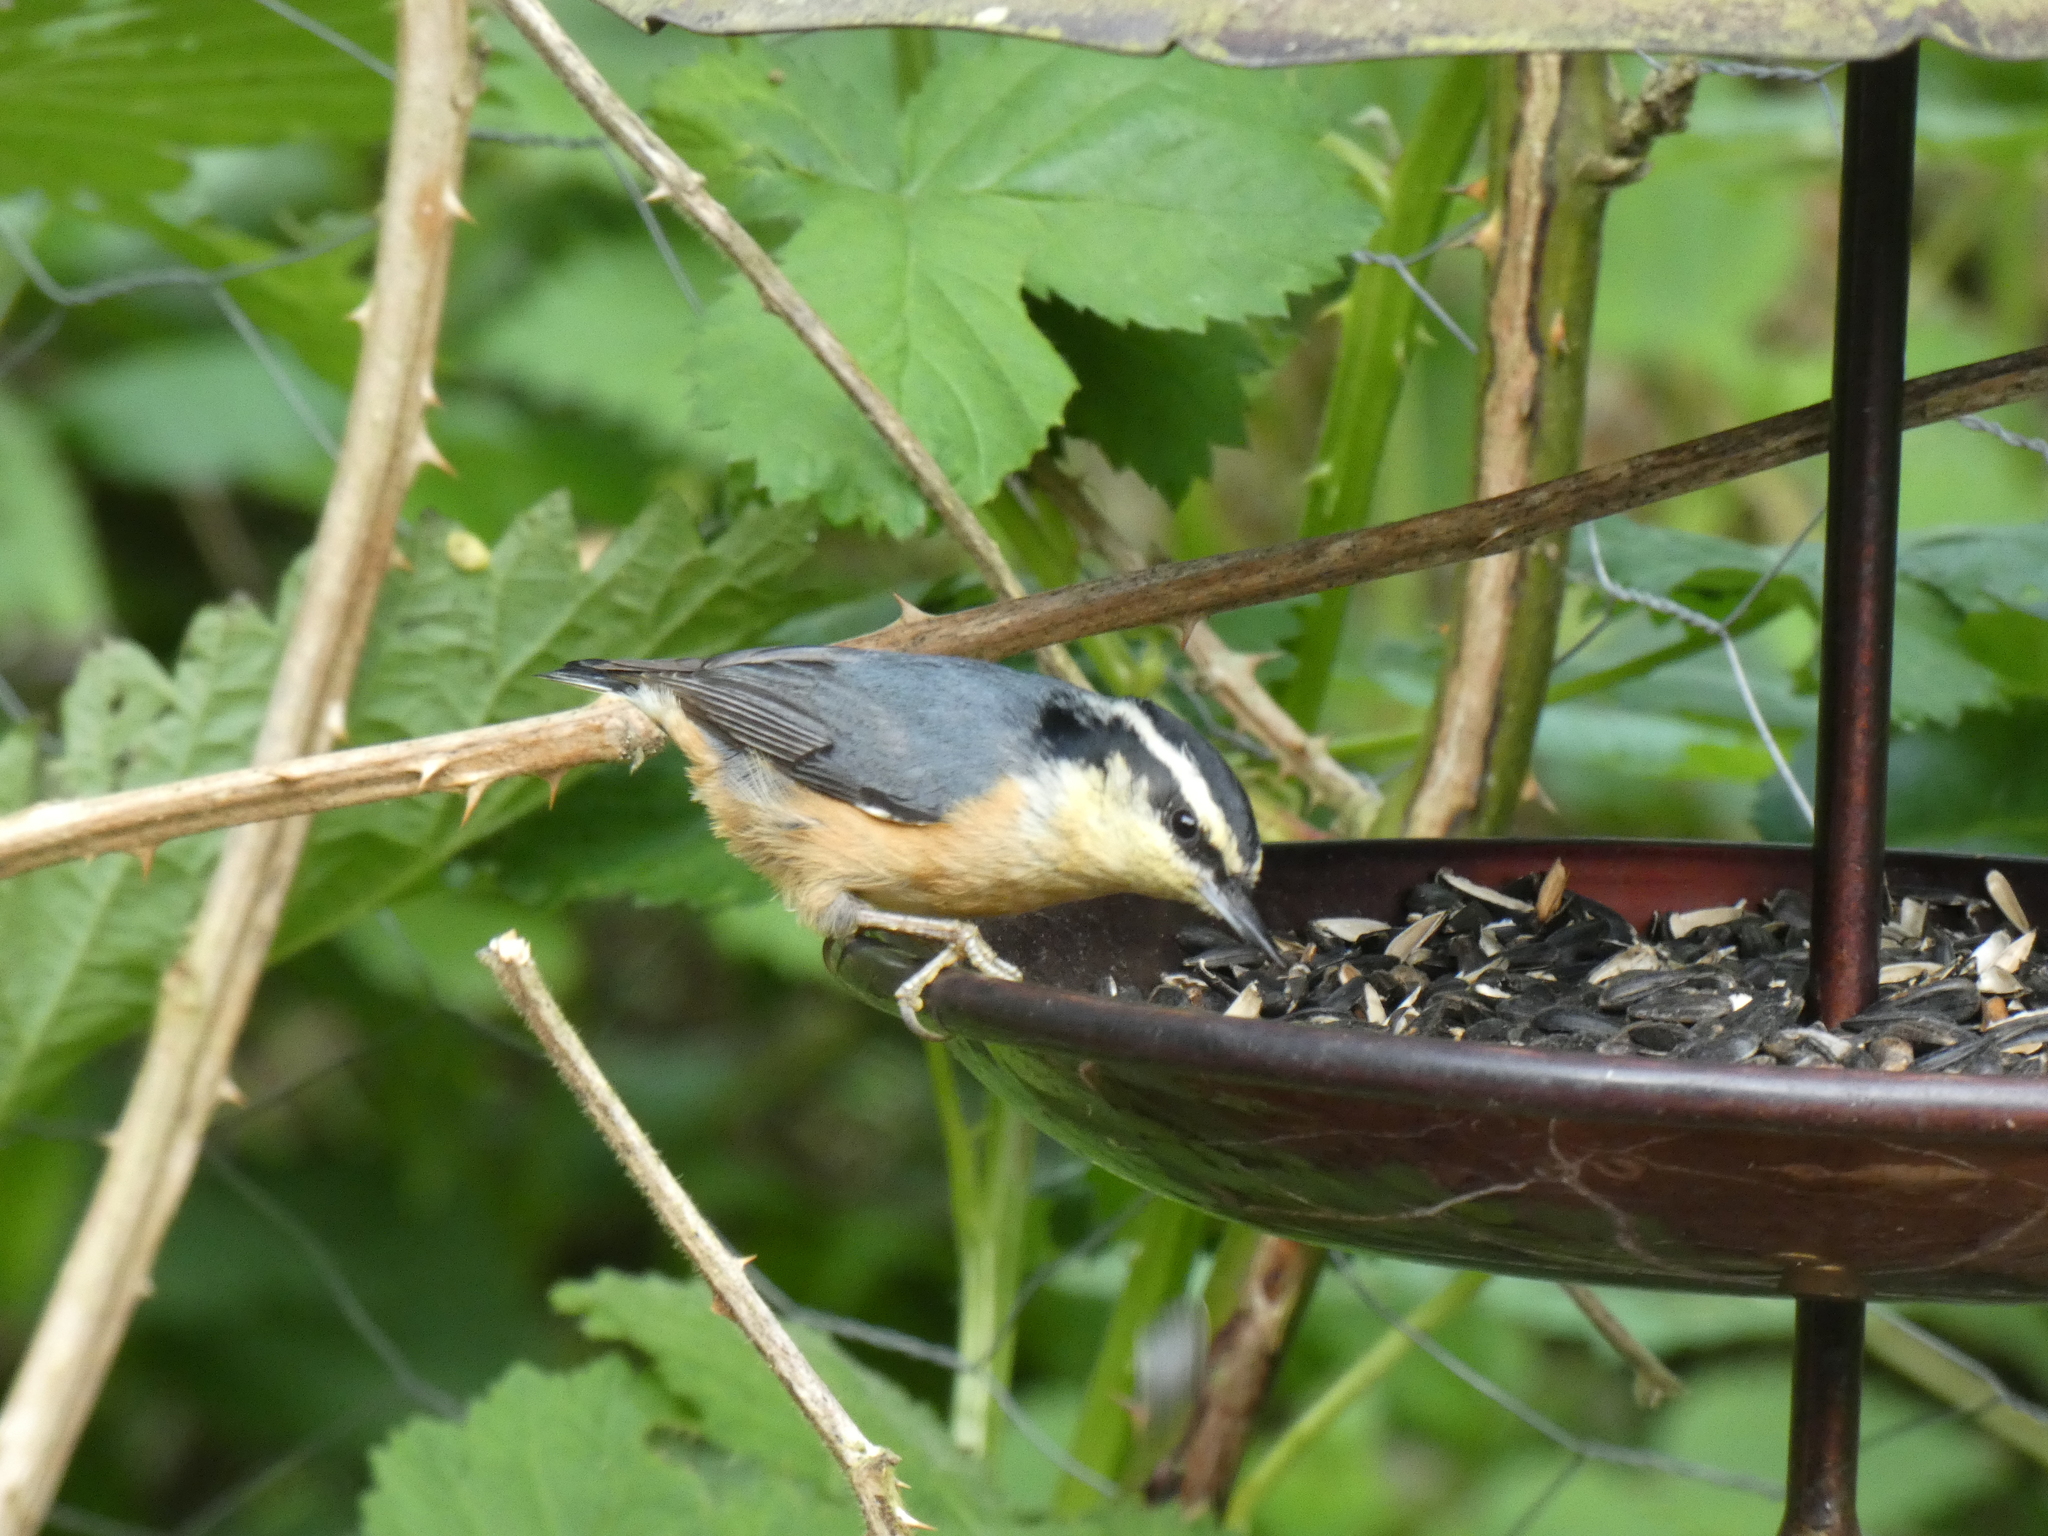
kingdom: Animalia
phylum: Chordata
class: Aves
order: Passeriformes
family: Sittidae
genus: Sitta
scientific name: Sitta canadensis
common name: Red-breasted nuthatch
